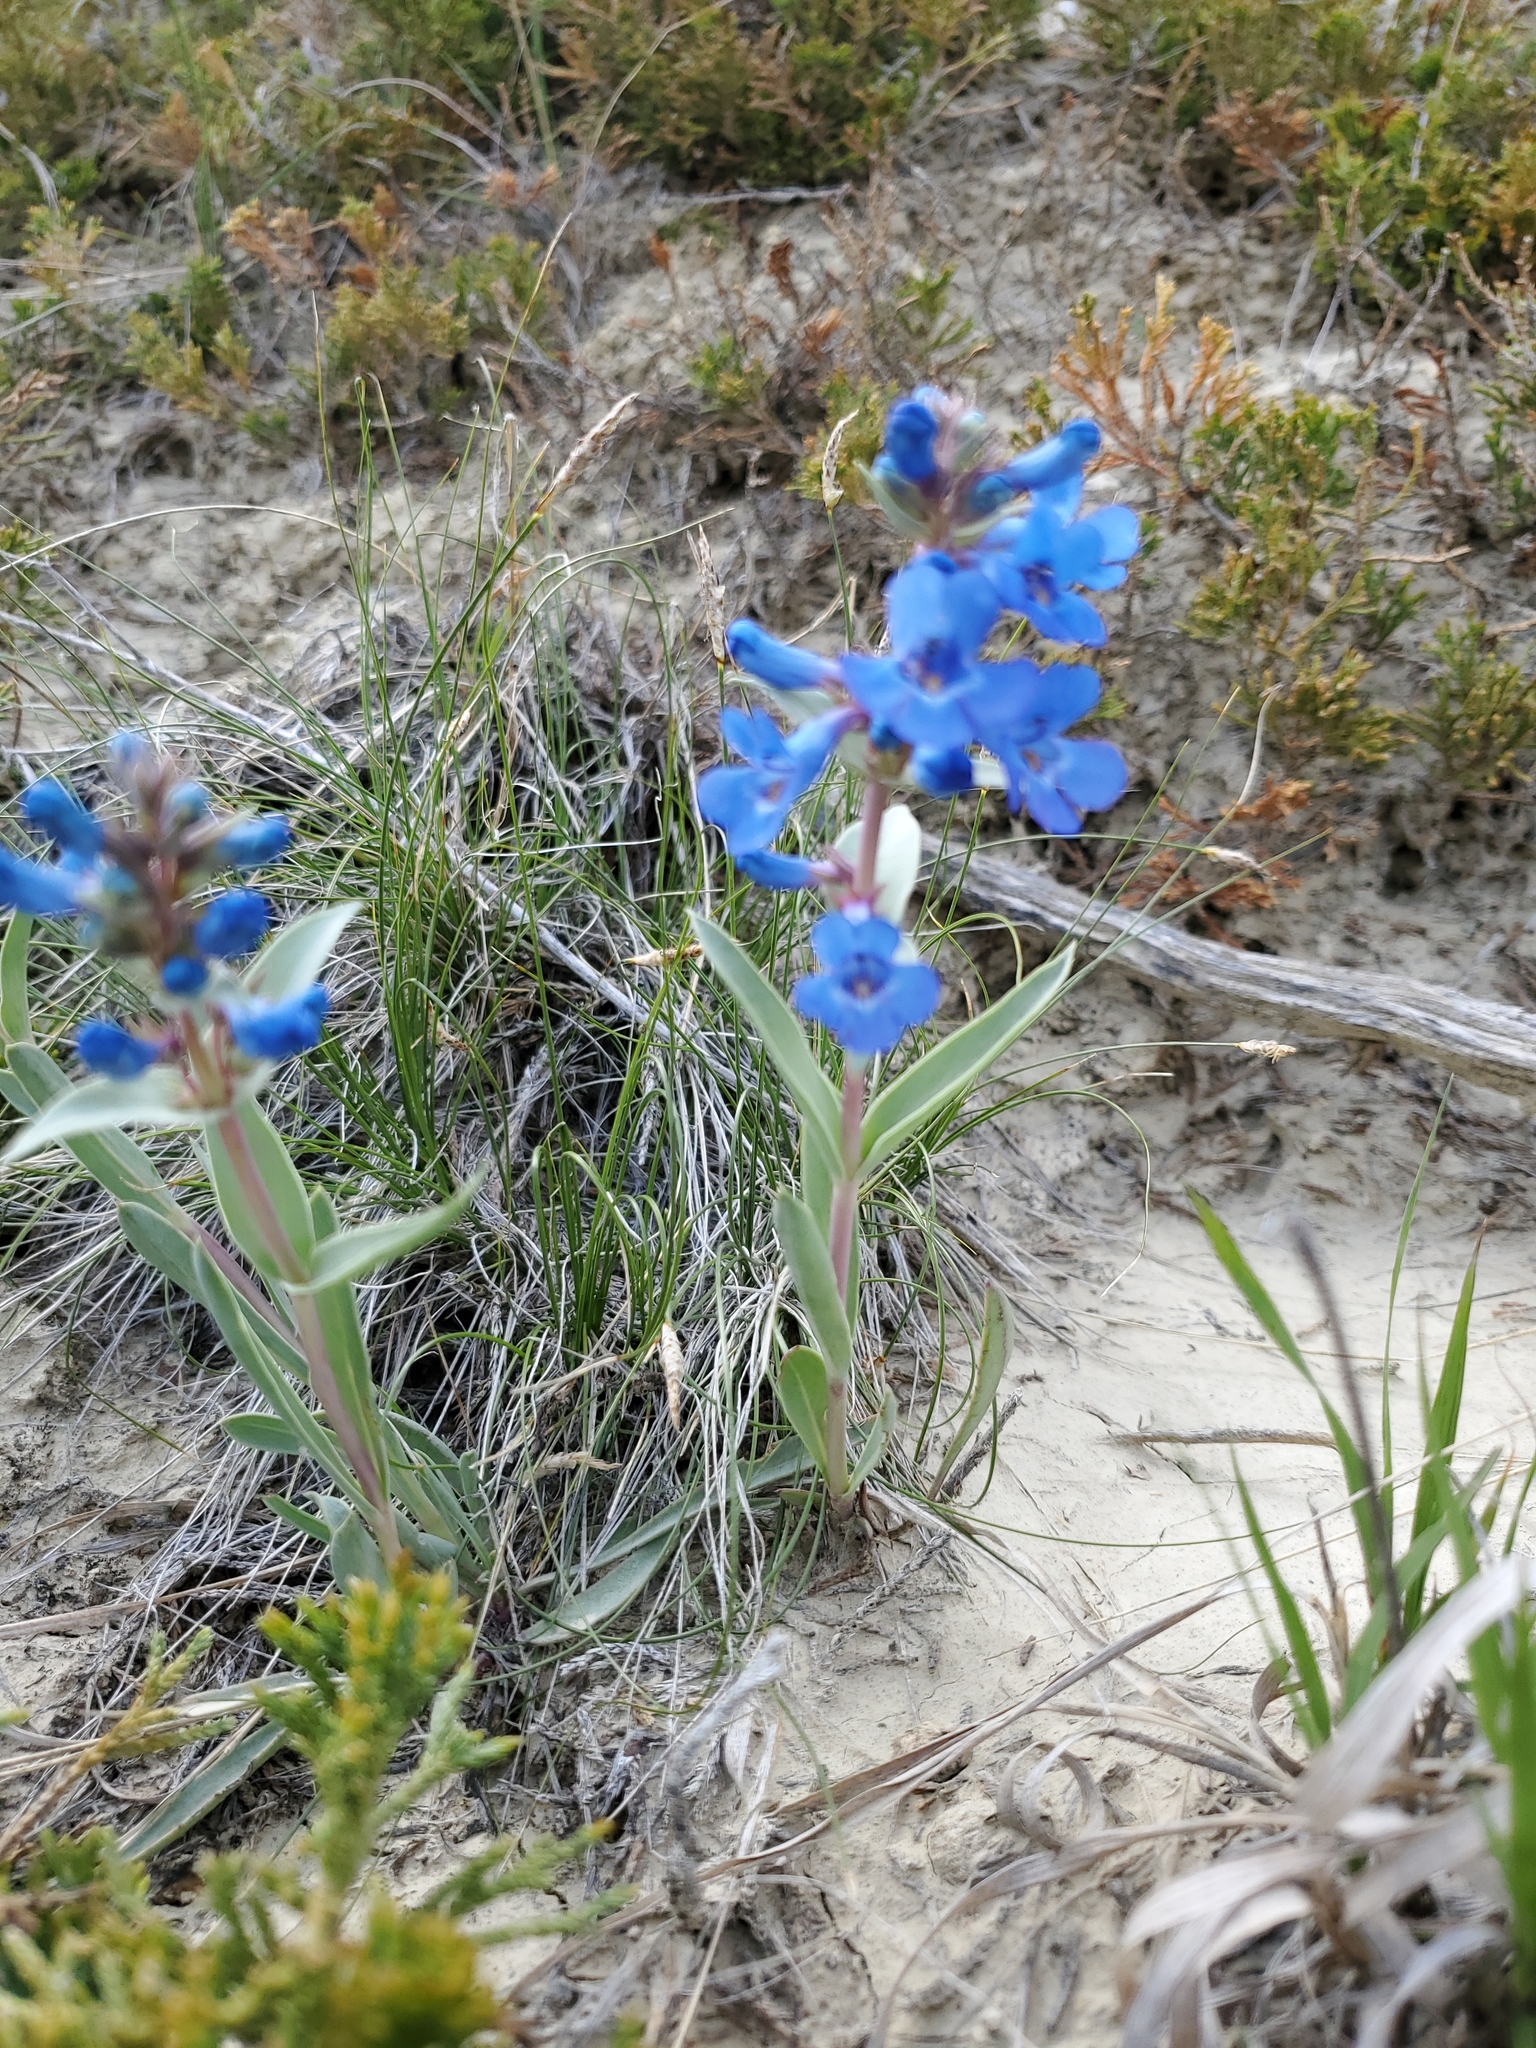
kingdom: Plantae
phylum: Tracheophyta
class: Magnoliopsida
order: Lamiales
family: Plantaginaceae
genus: Penstemon
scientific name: Penstemon nitidus
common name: Shining penstemon
